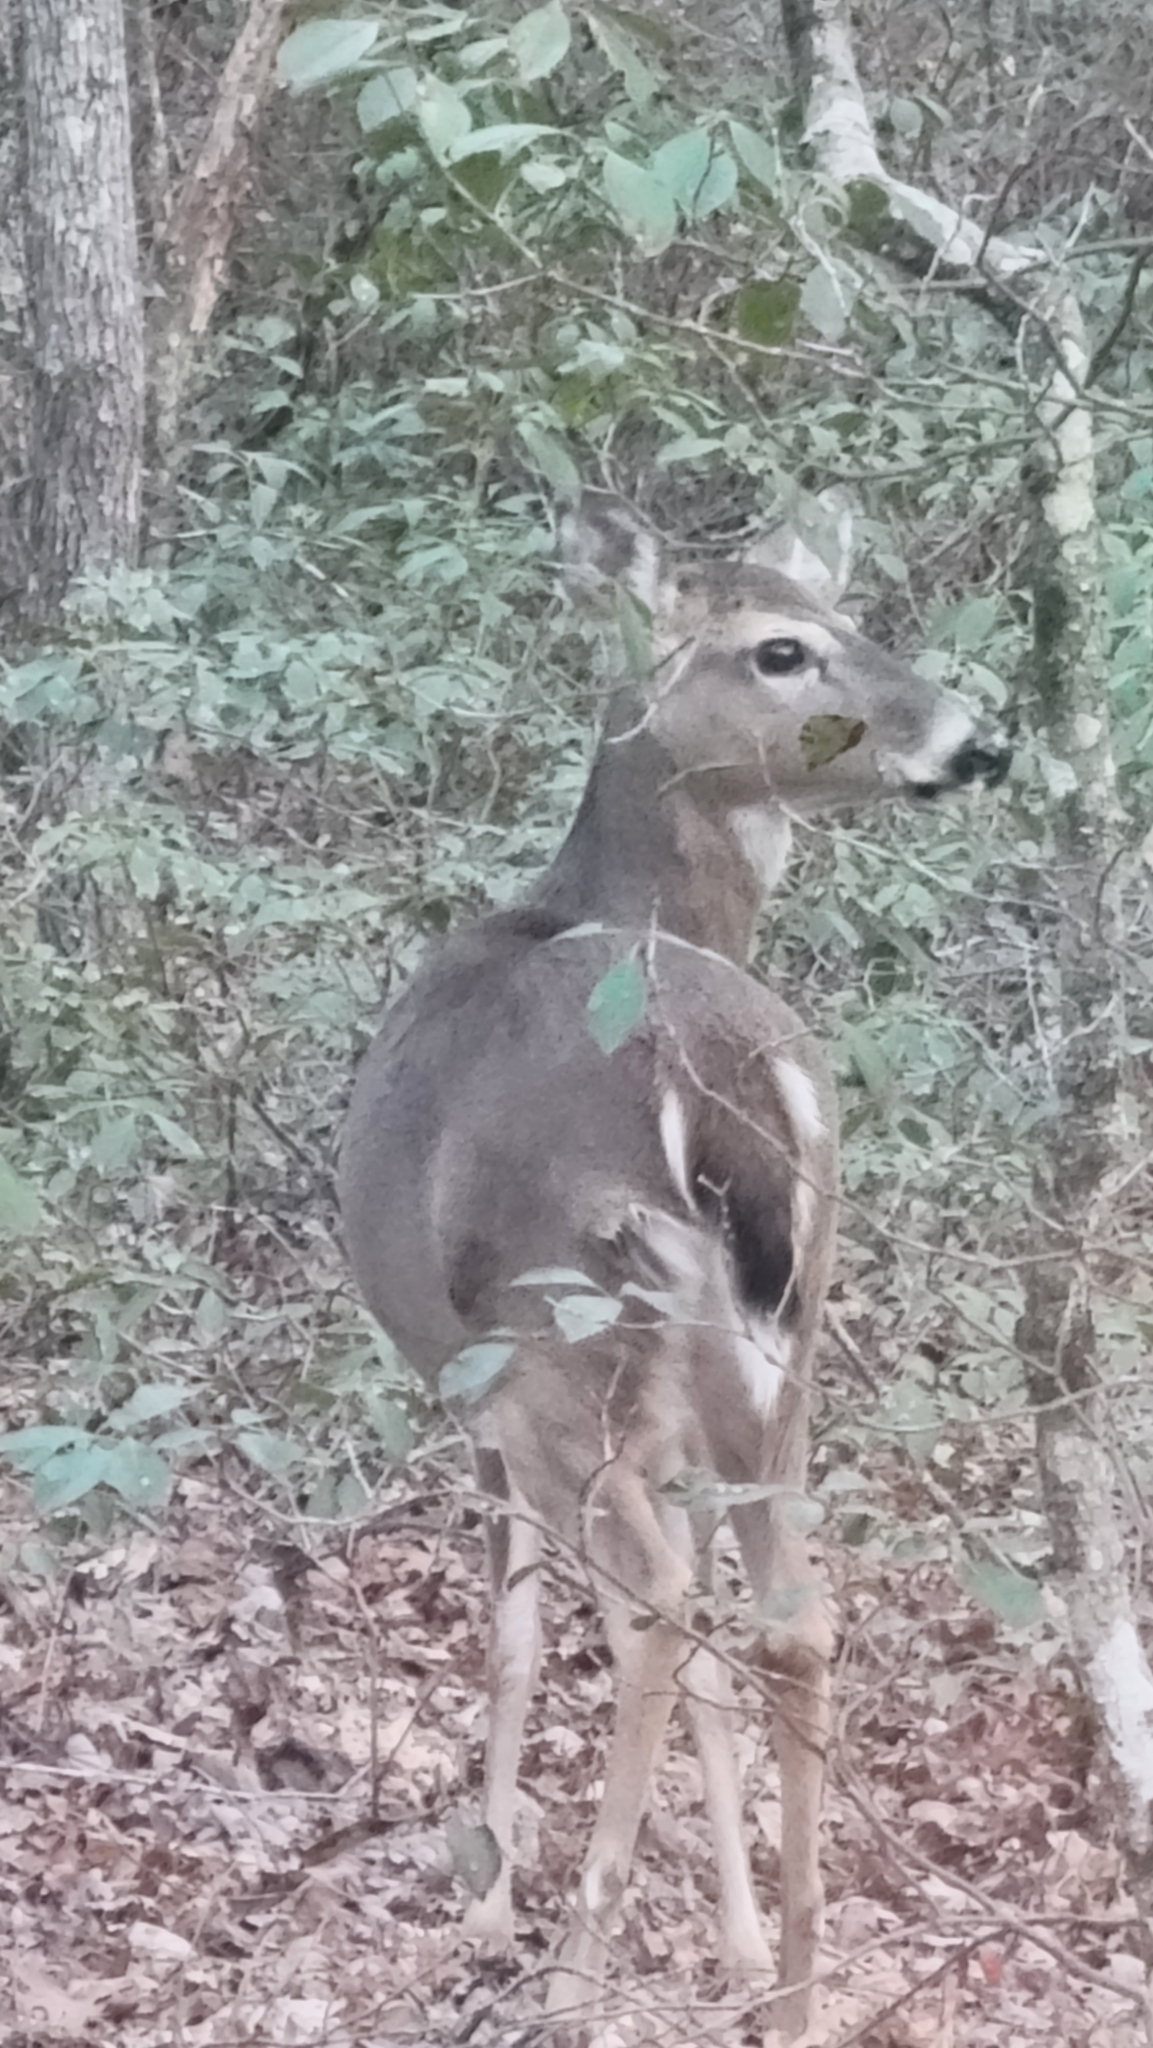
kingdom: Animalia
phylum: Chordata
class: Mammalia
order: Artiodactyla
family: Cervidae
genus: Odocoileus
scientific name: Odocoileus virginianus
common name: White-tailed deer
